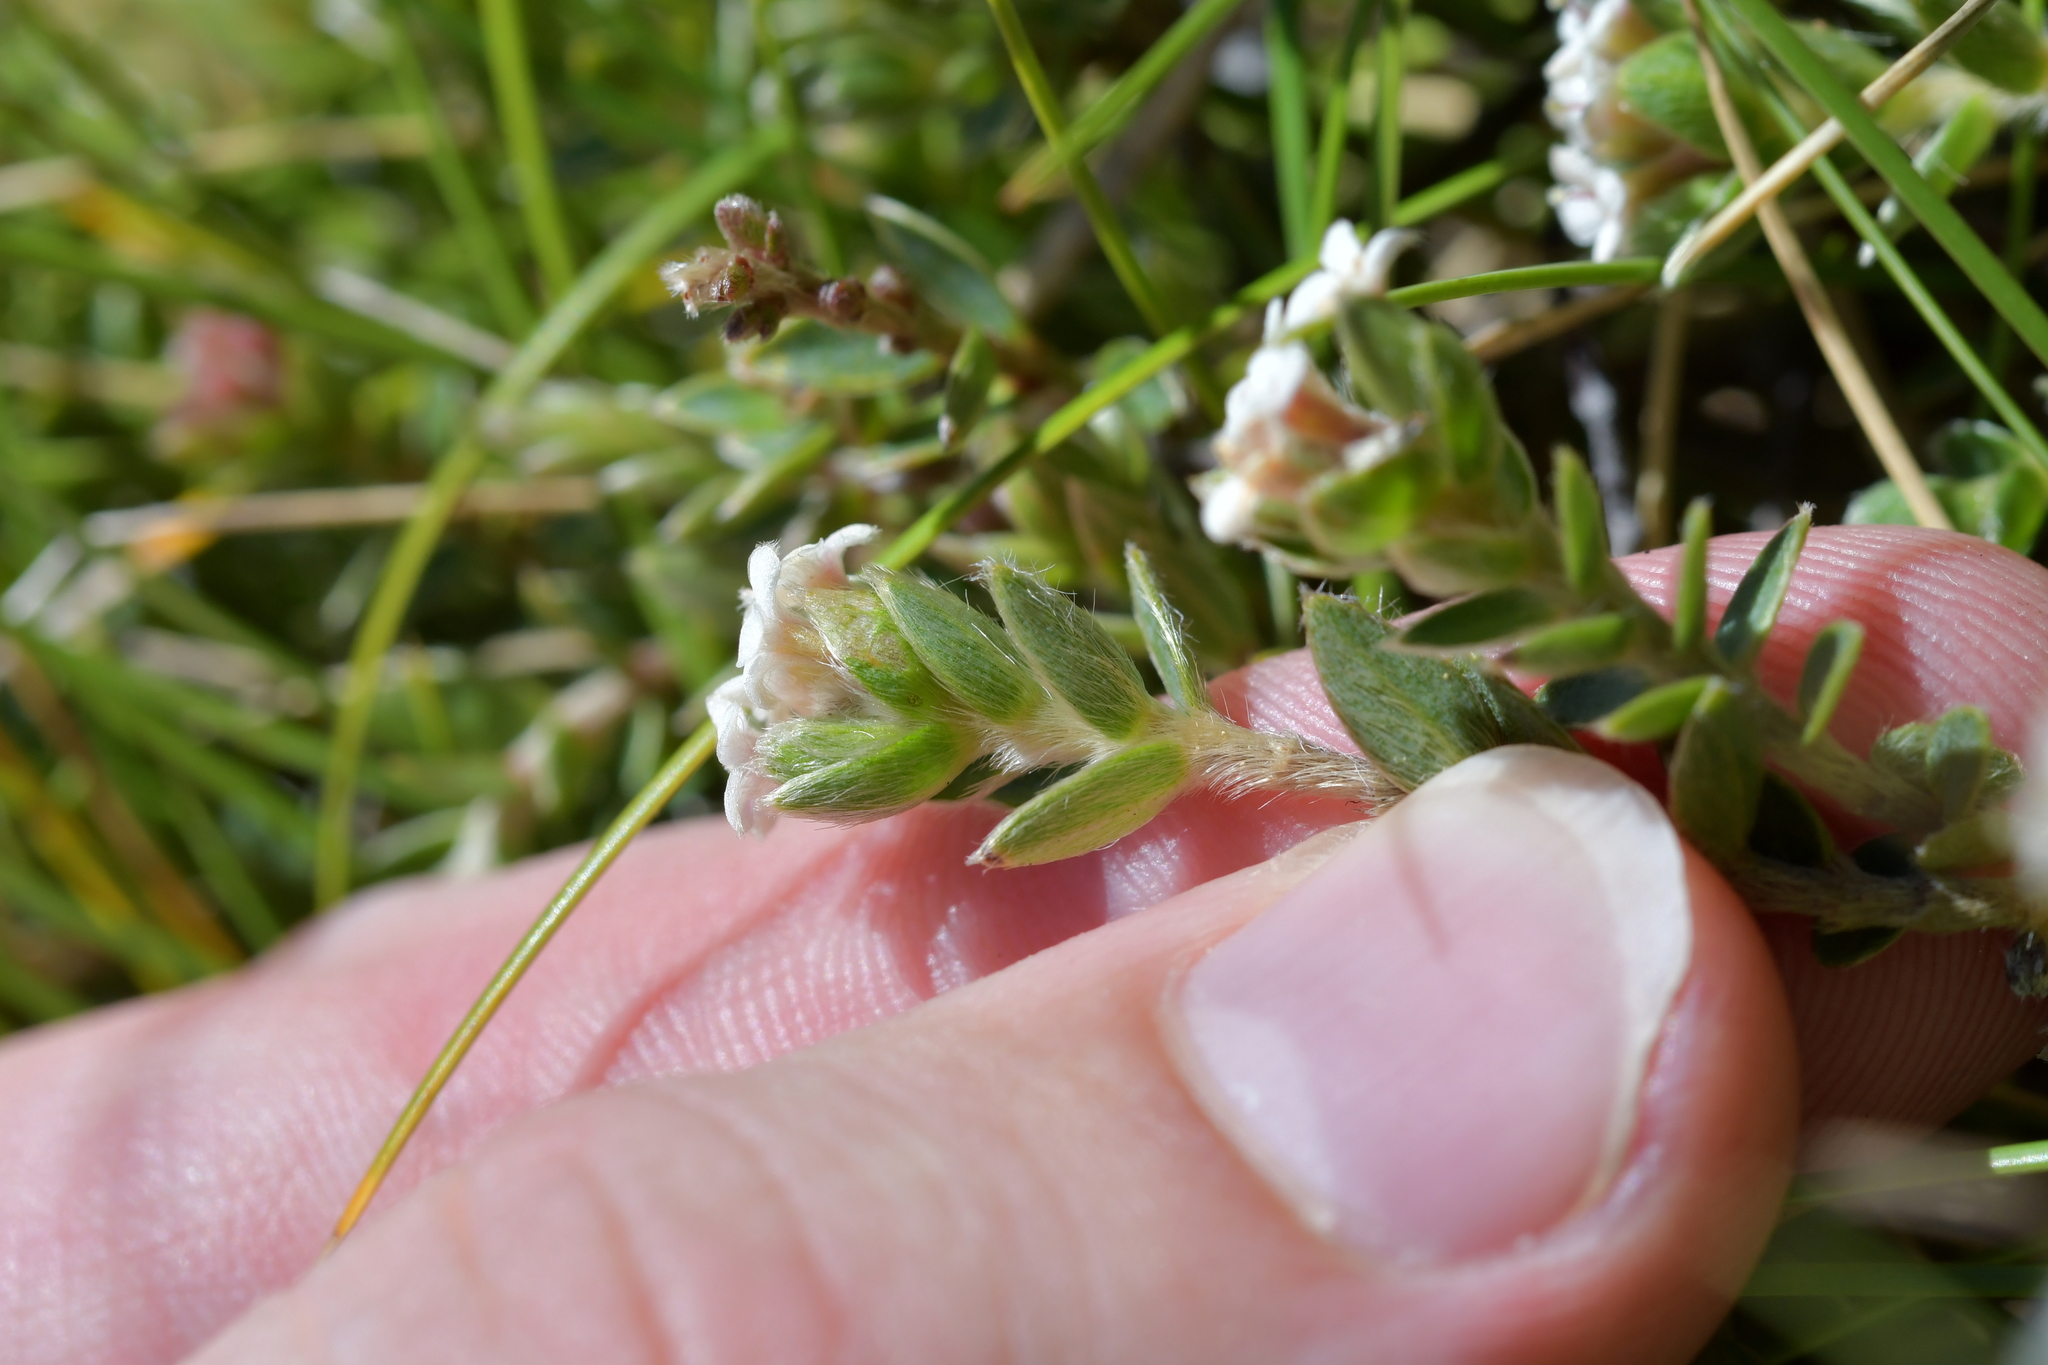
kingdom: Plantae
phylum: Tracheophyta
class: Magnoliopsida
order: Malvales
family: Thymelaeaceae
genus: Pimelea
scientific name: Pimelea oreophila
